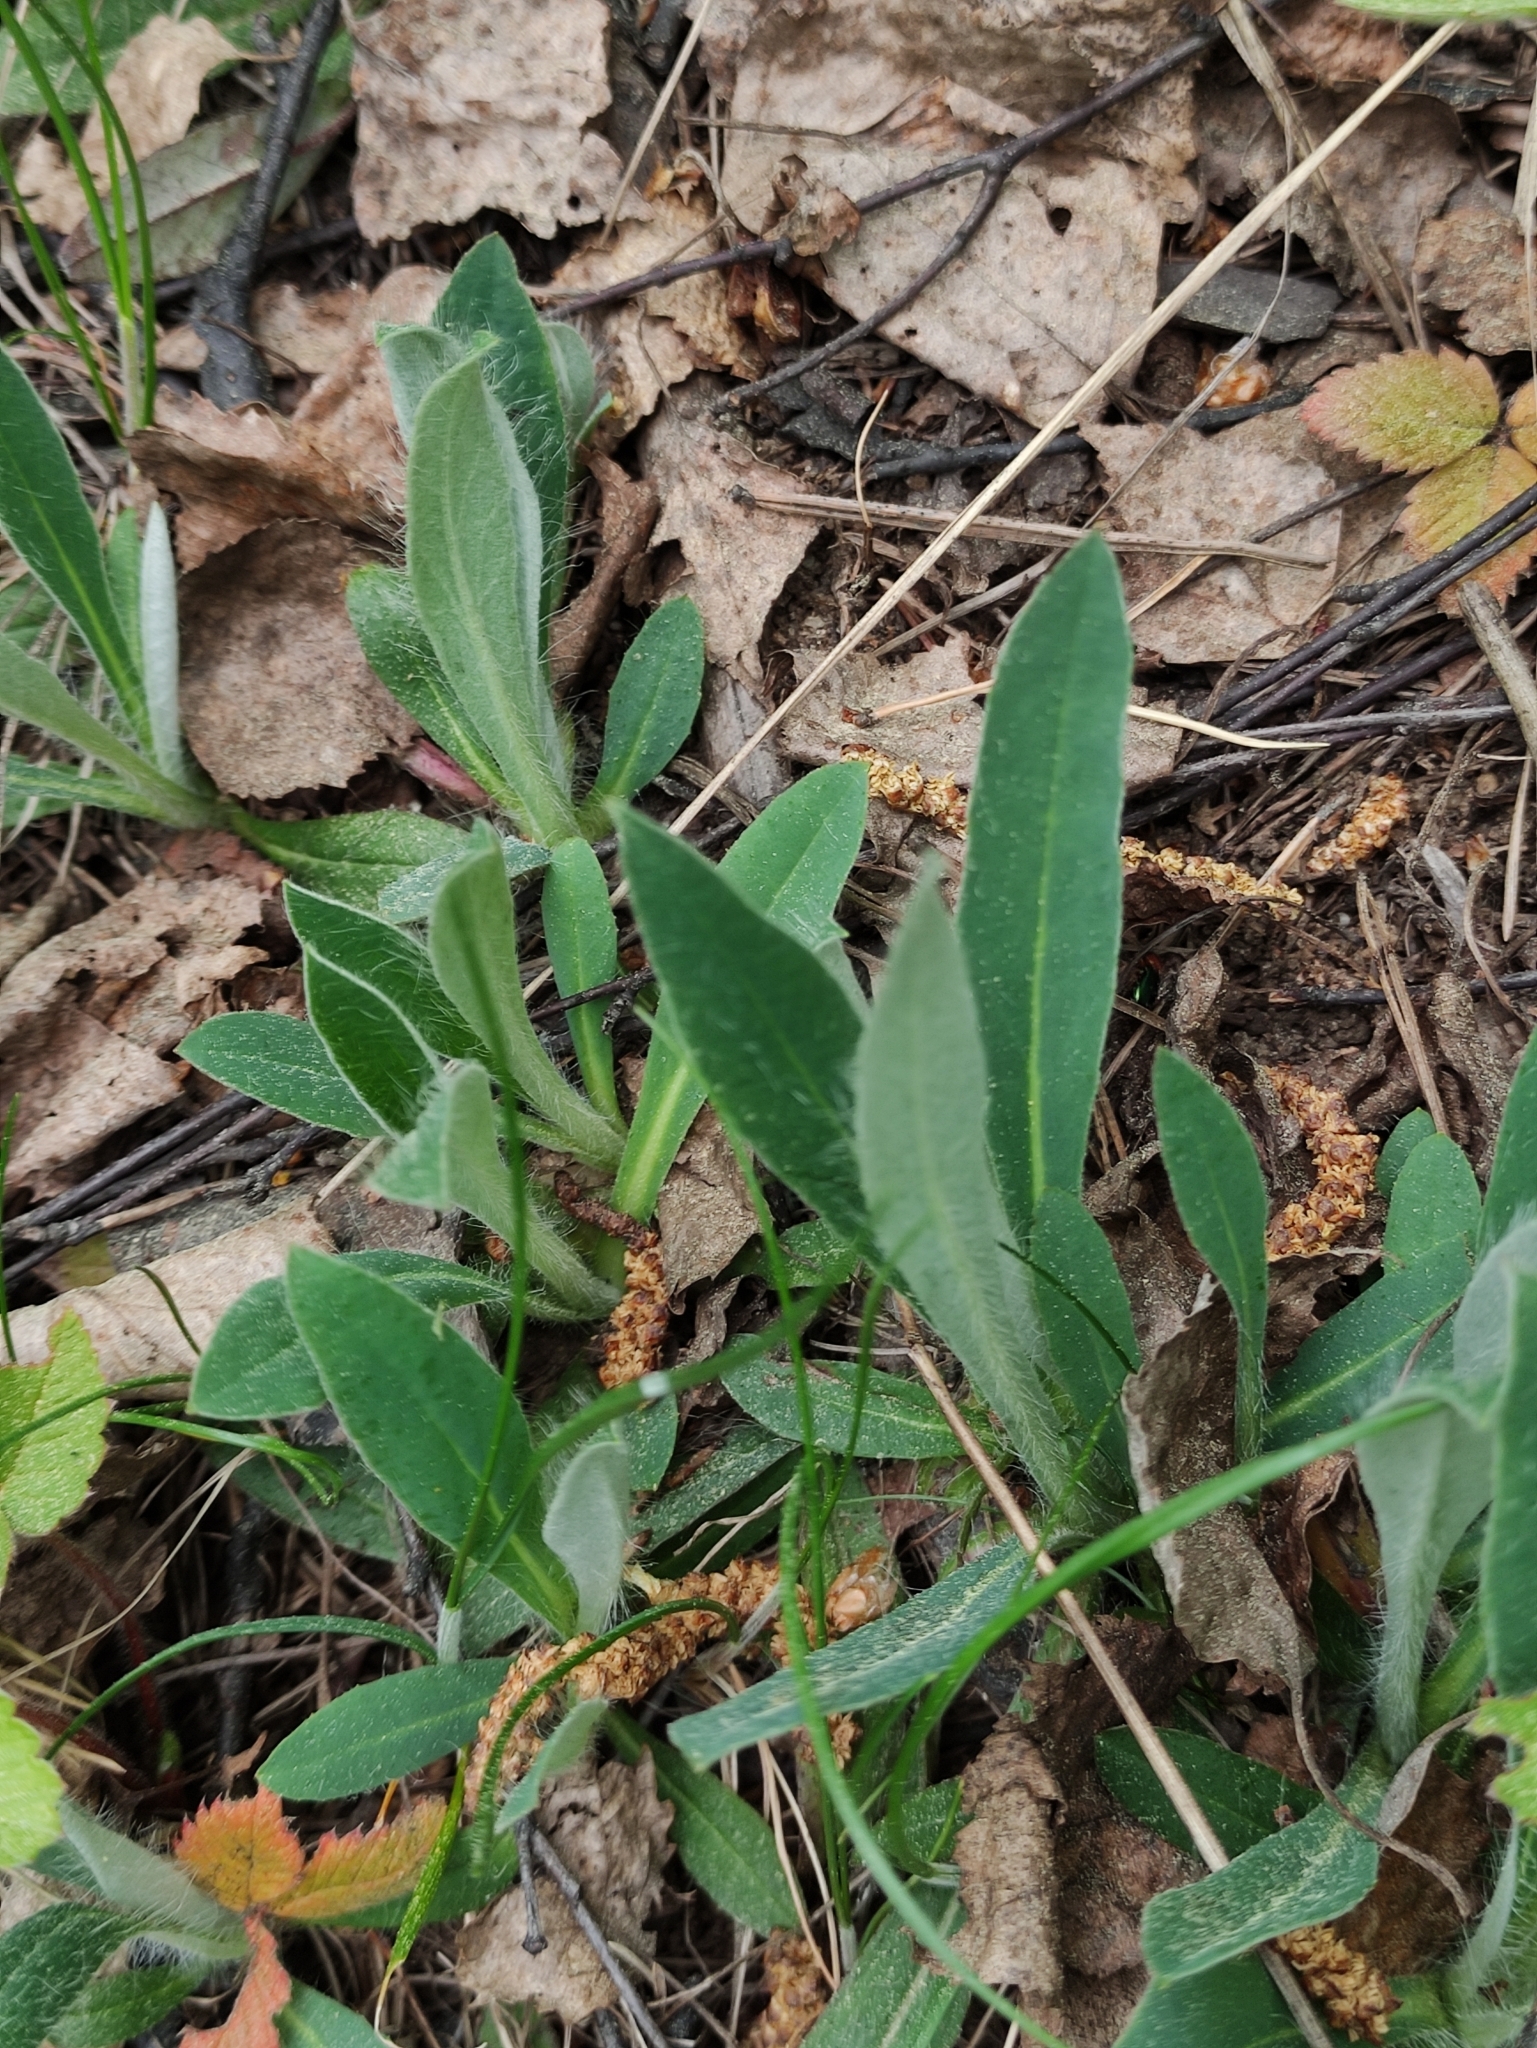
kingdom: Plantae
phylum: Tracheophyta
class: Magnoliopsida
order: Asterales
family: Asteraceae
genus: Pilosella
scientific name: Pilosella officinarum
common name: Mouse-ear hawkweed
